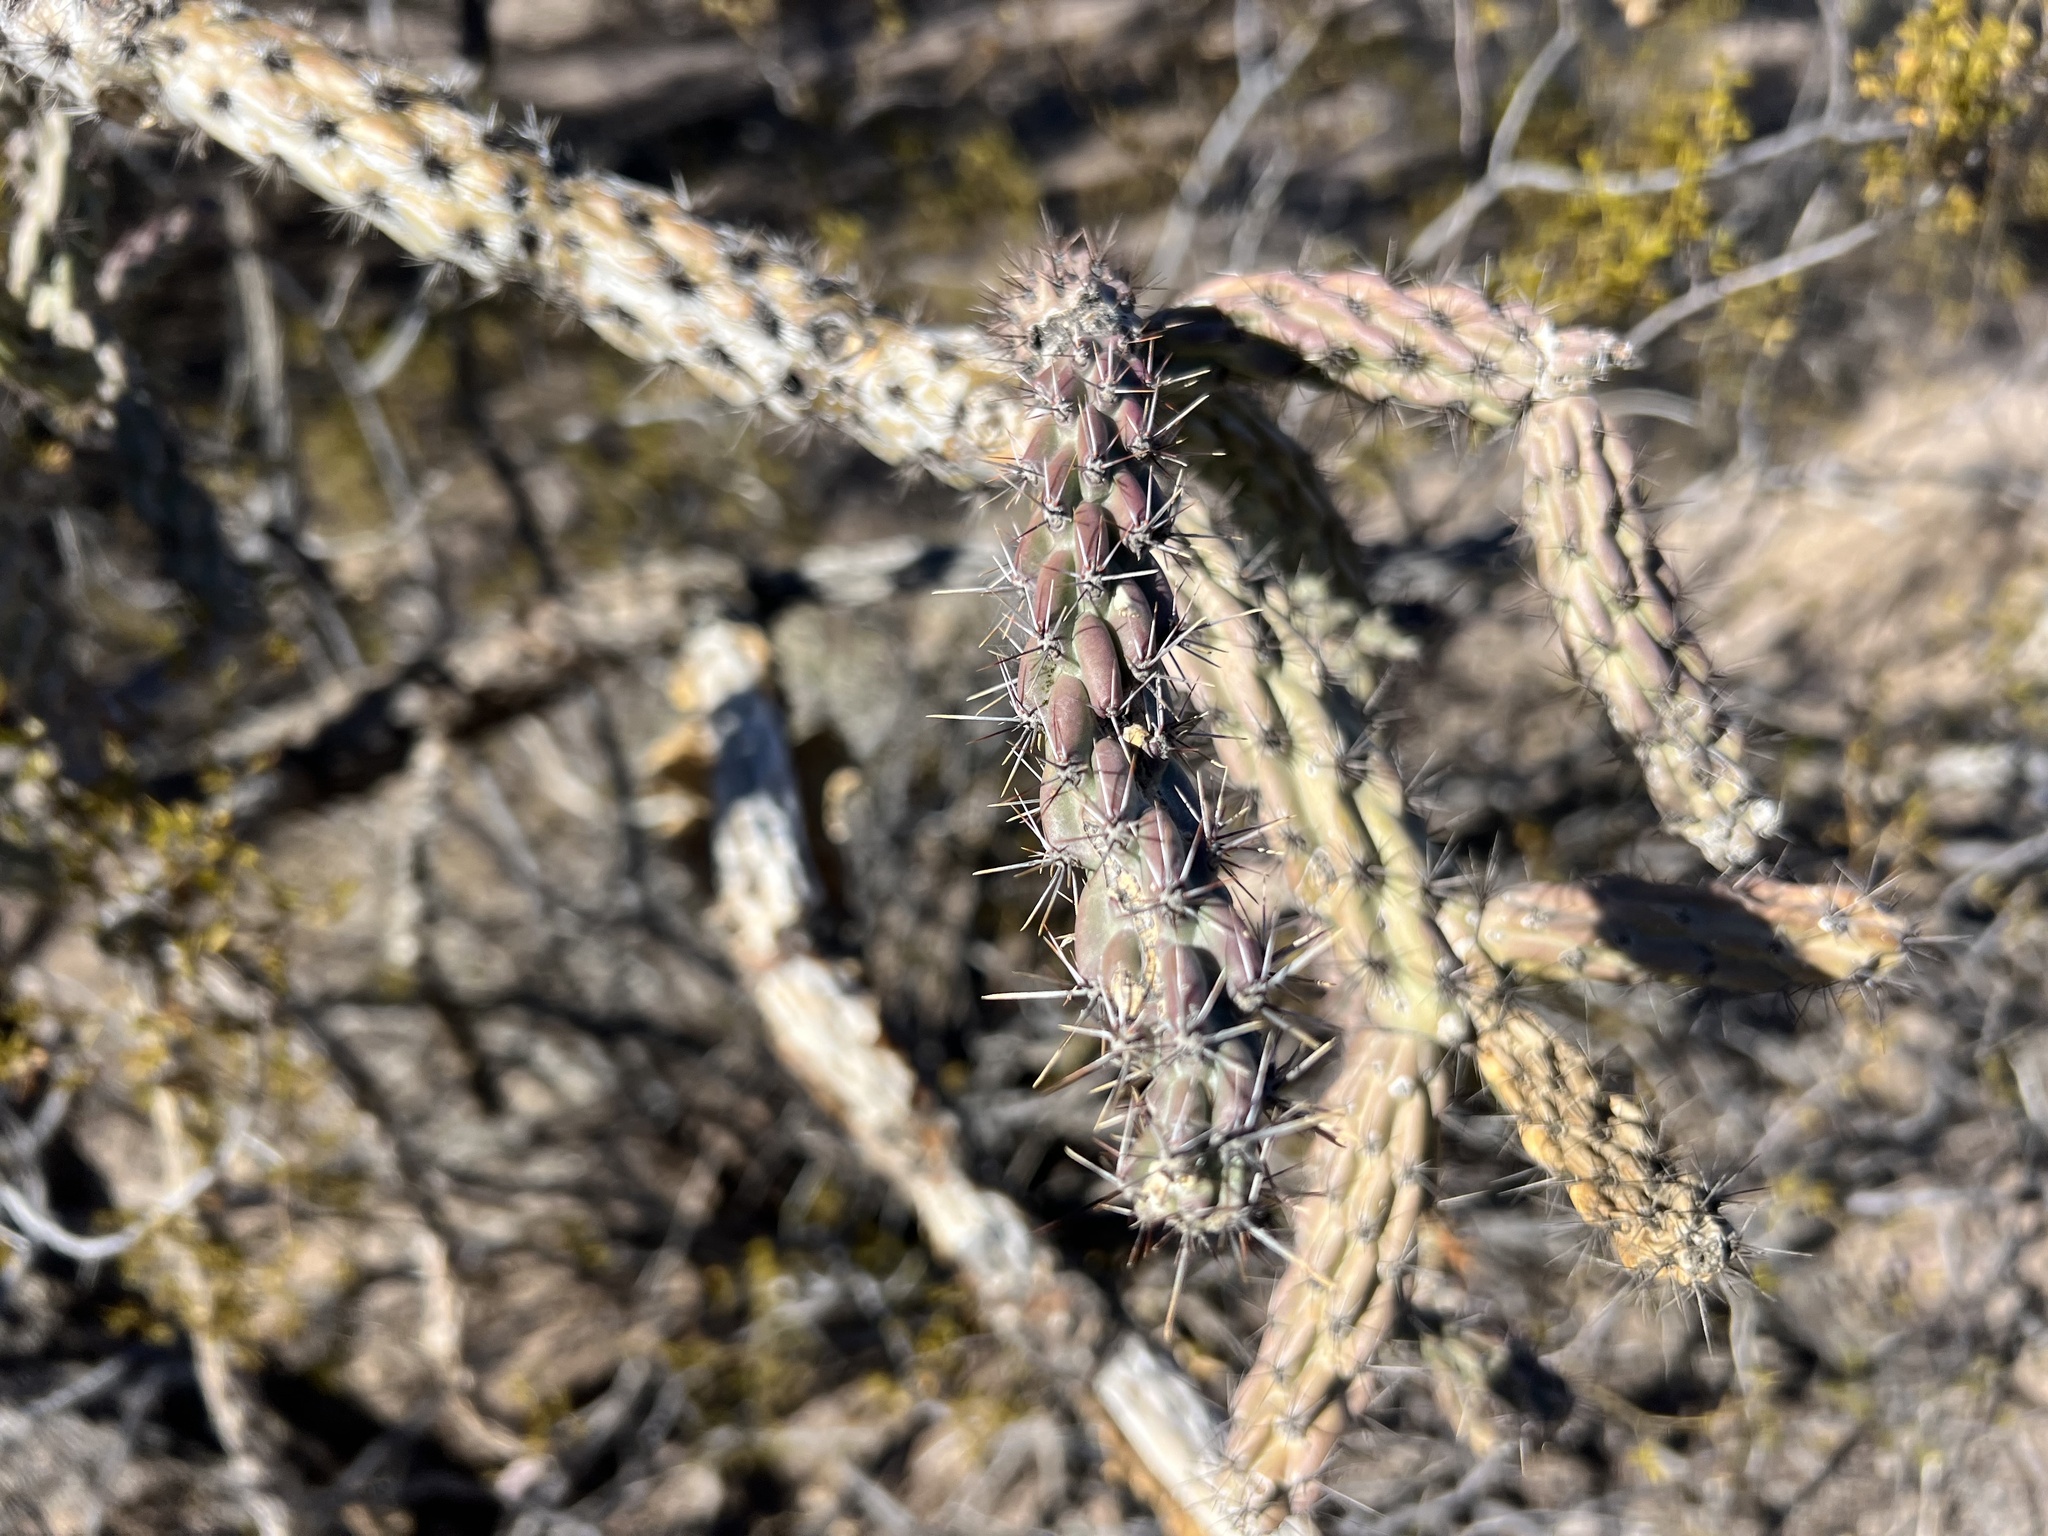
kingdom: Plantae
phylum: Tracheophyta
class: Magnoliopsida
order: Caryophyllales
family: Cactaceae
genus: Cylindropuntia
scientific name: Cylindropuntia thurberi
